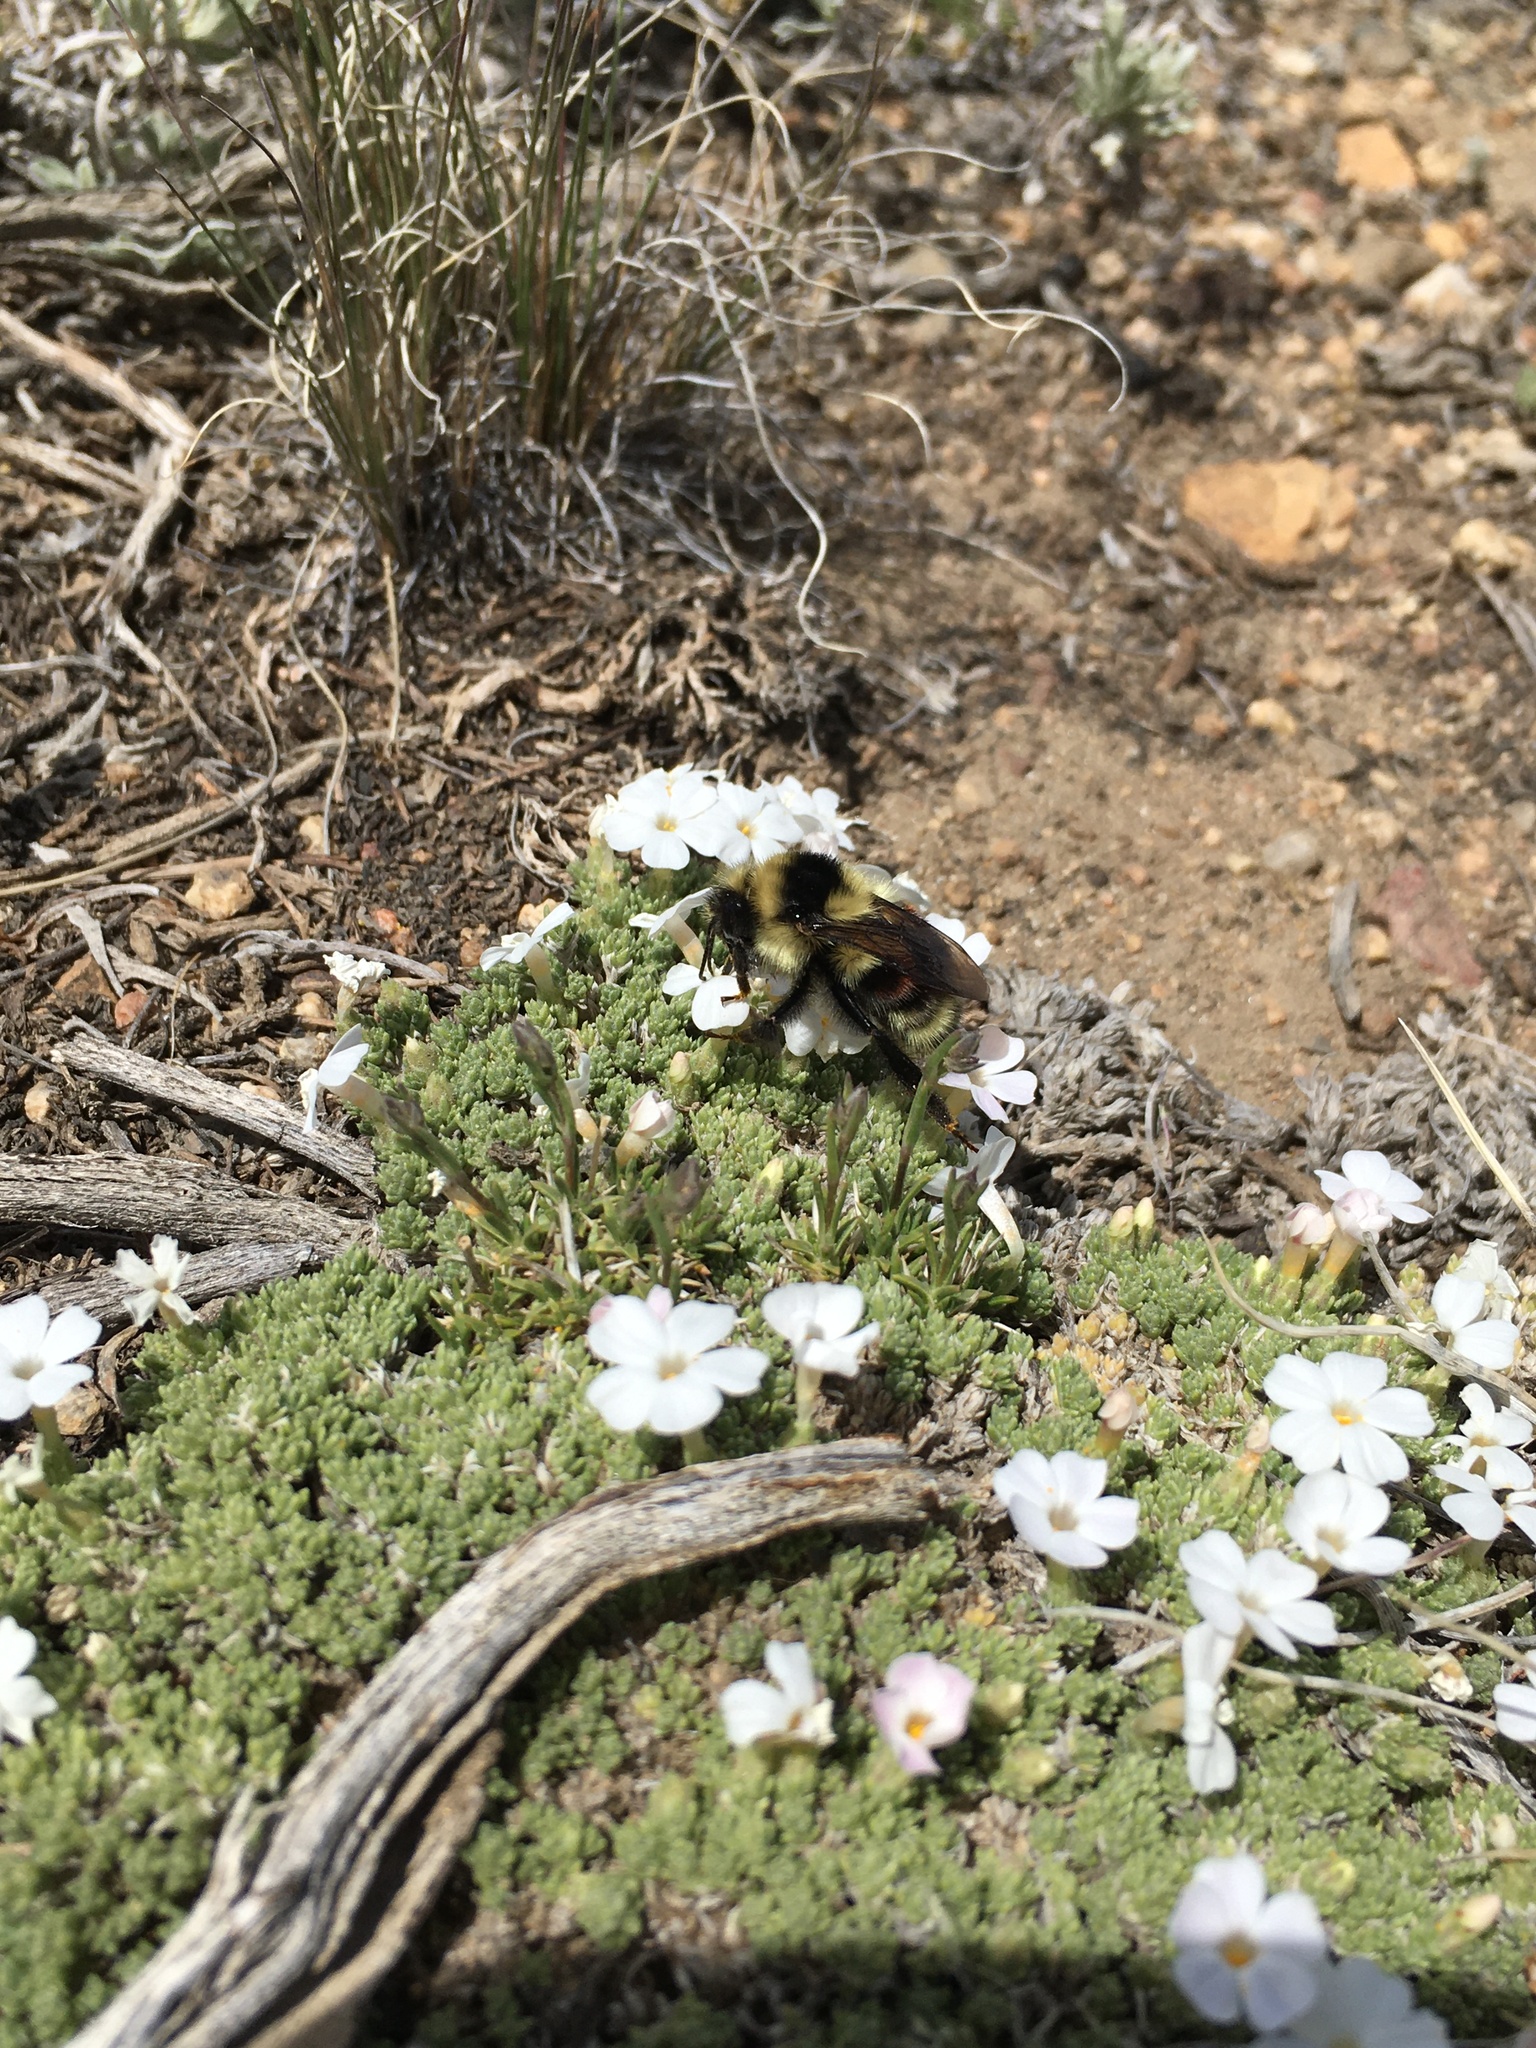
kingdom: Animalia
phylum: Arthropoda
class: Insecta
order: Hymenoptera
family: Apidae
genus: Bombus
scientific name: Bombus vancouverensis
